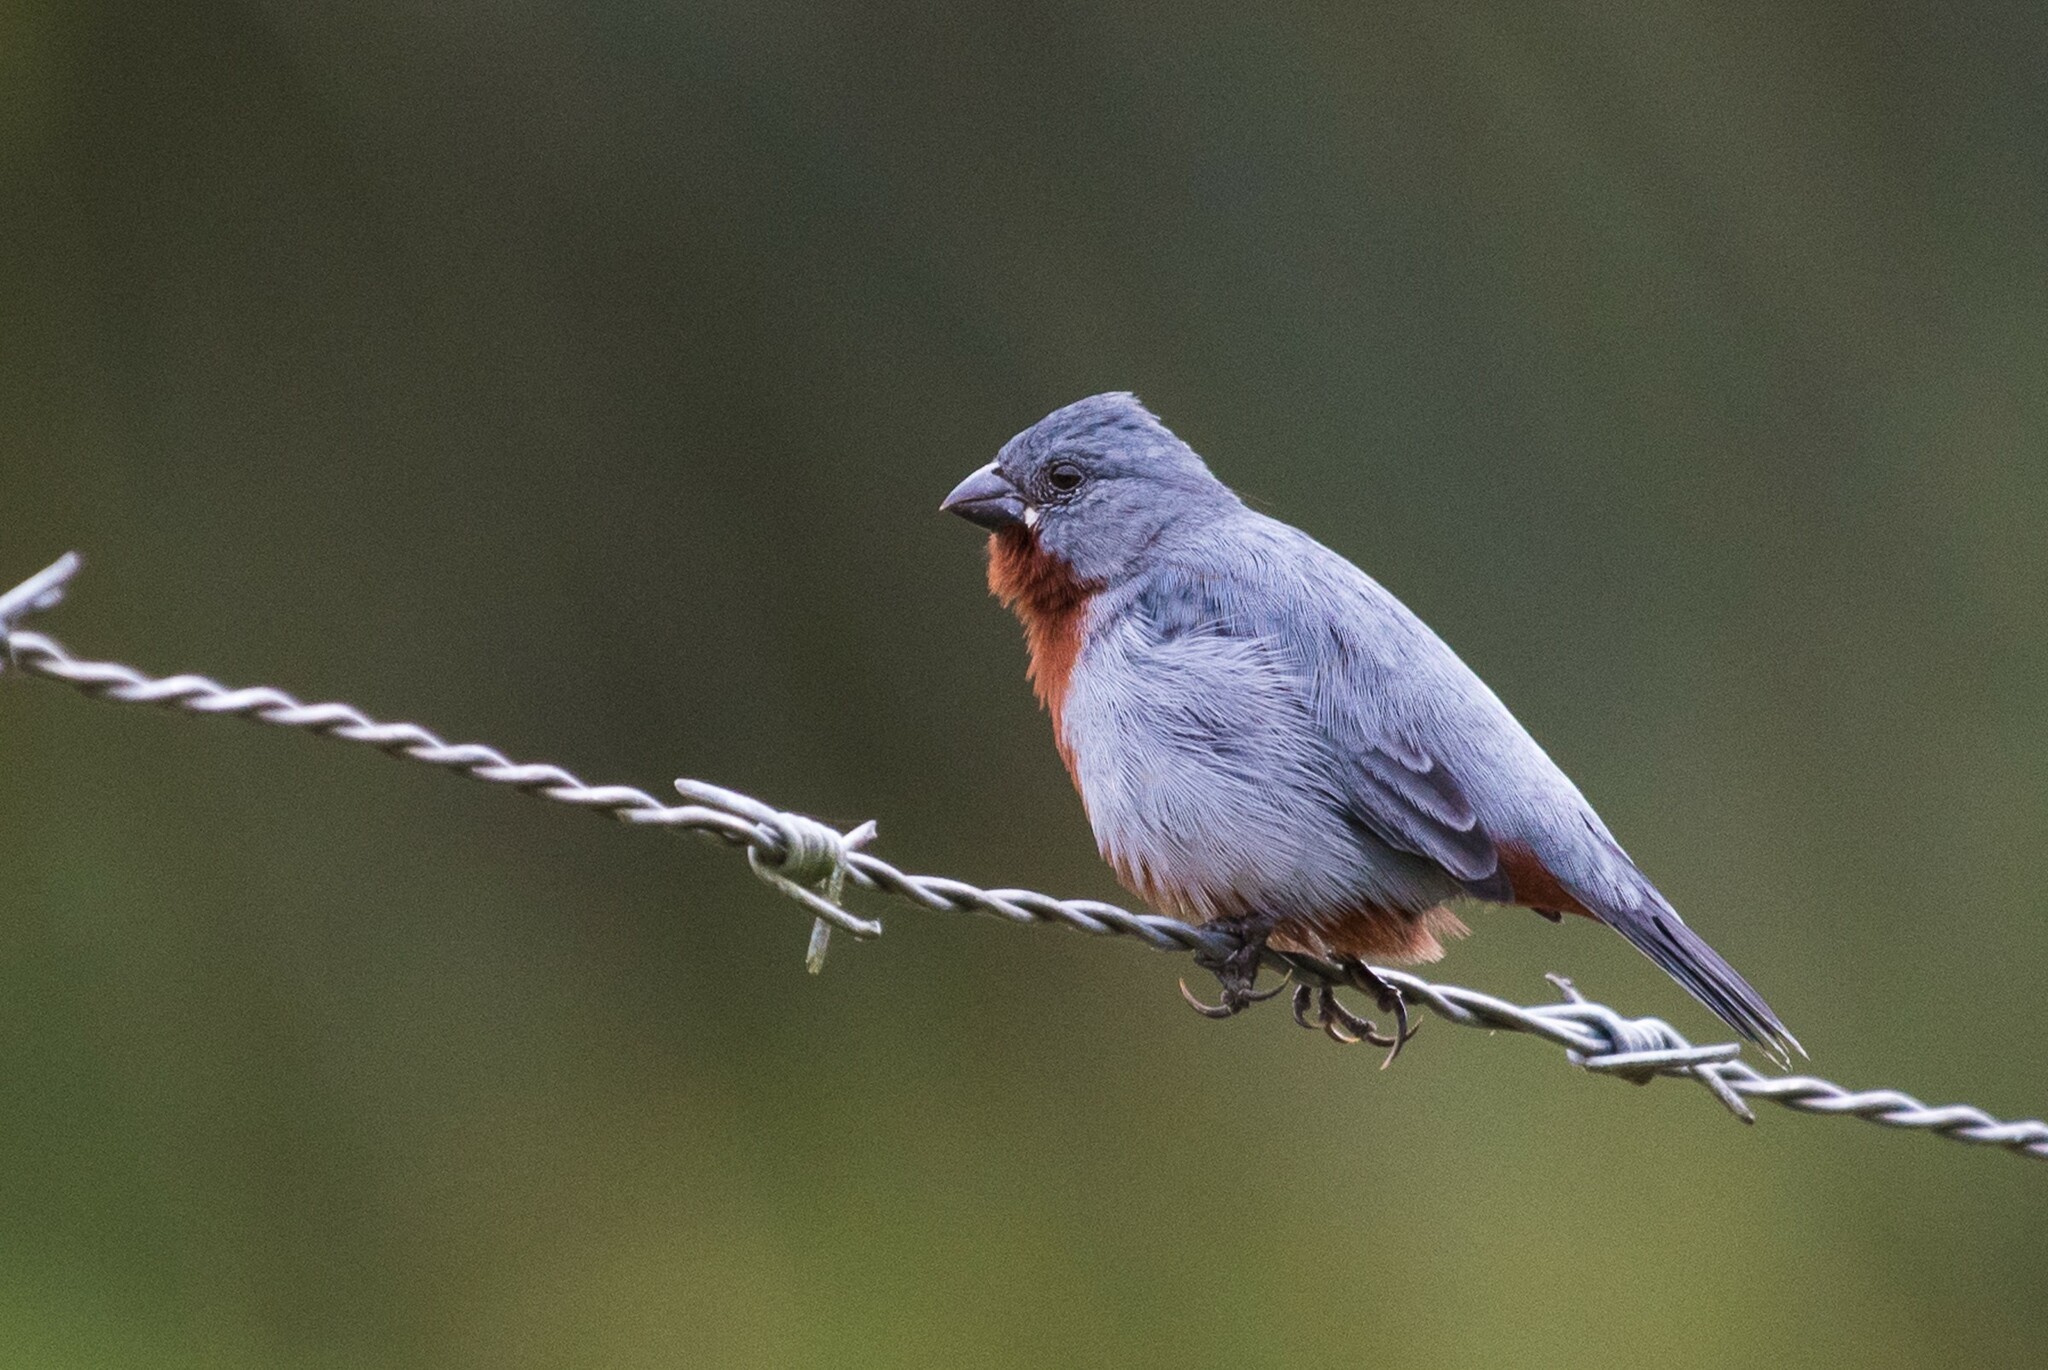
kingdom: Animalia
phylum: Chordata
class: Aves
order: Passeriformes
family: Thraupidae
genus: Sporophila
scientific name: Sporophila castaneiventris
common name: Chestnut-bellied seedeater
